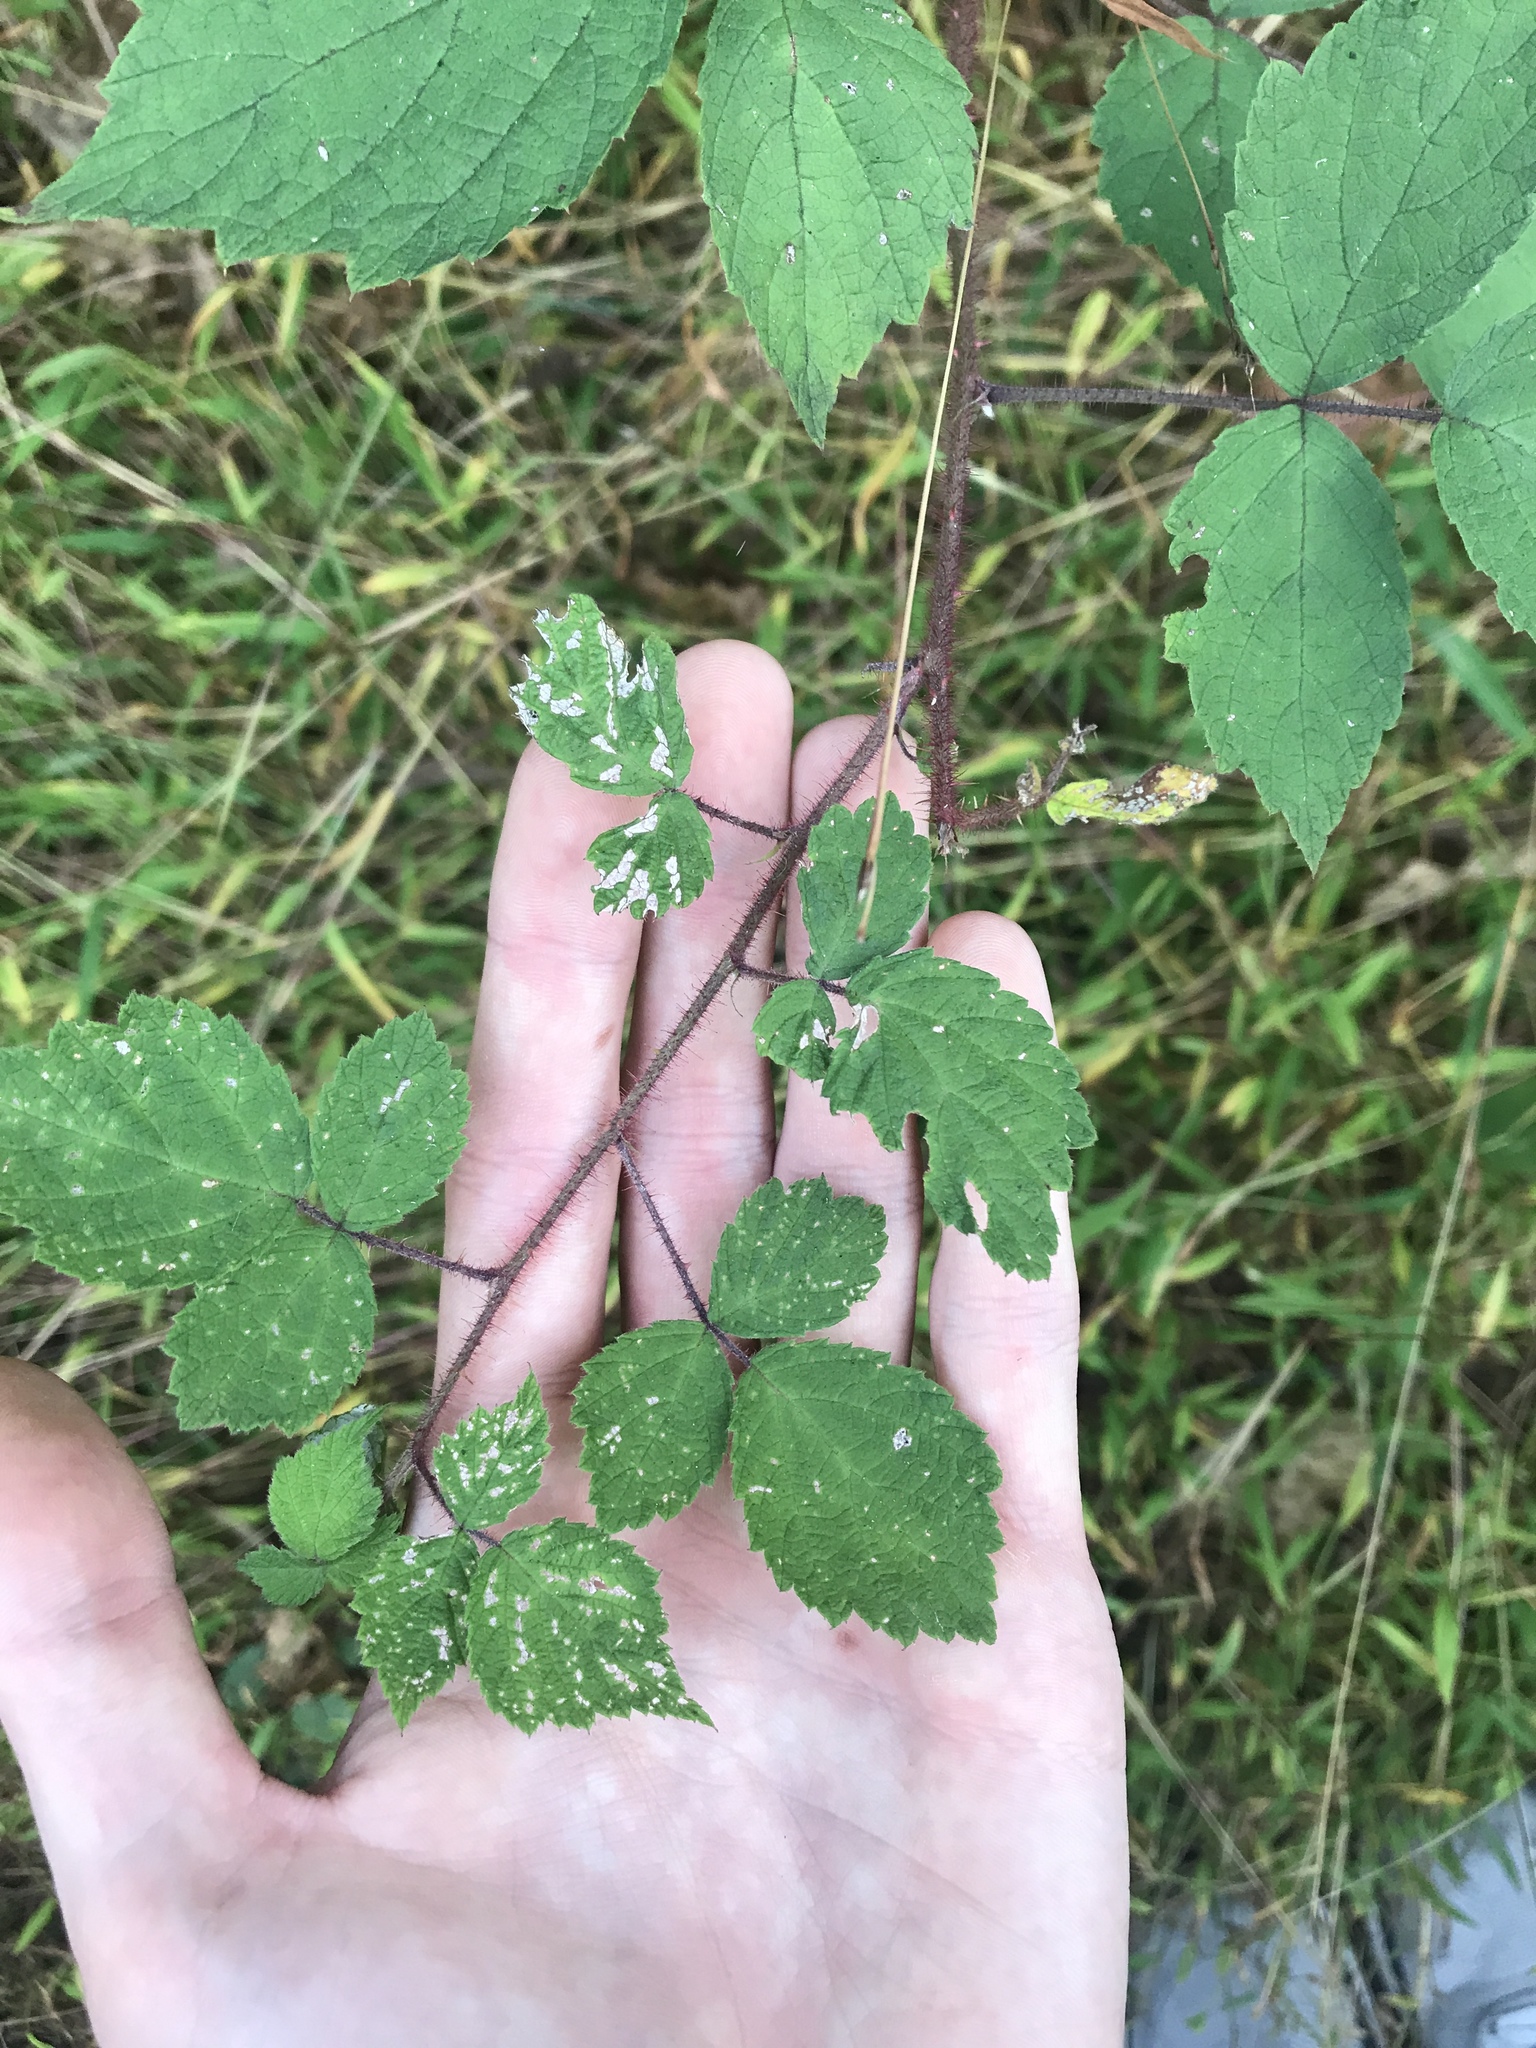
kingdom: Plantae
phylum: Tracheophyta
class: Magnoliopsida
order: Rosales
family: Rosaceae
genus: Rubus
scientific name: Rubus phoenicolasius
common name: Japanese wineberry
